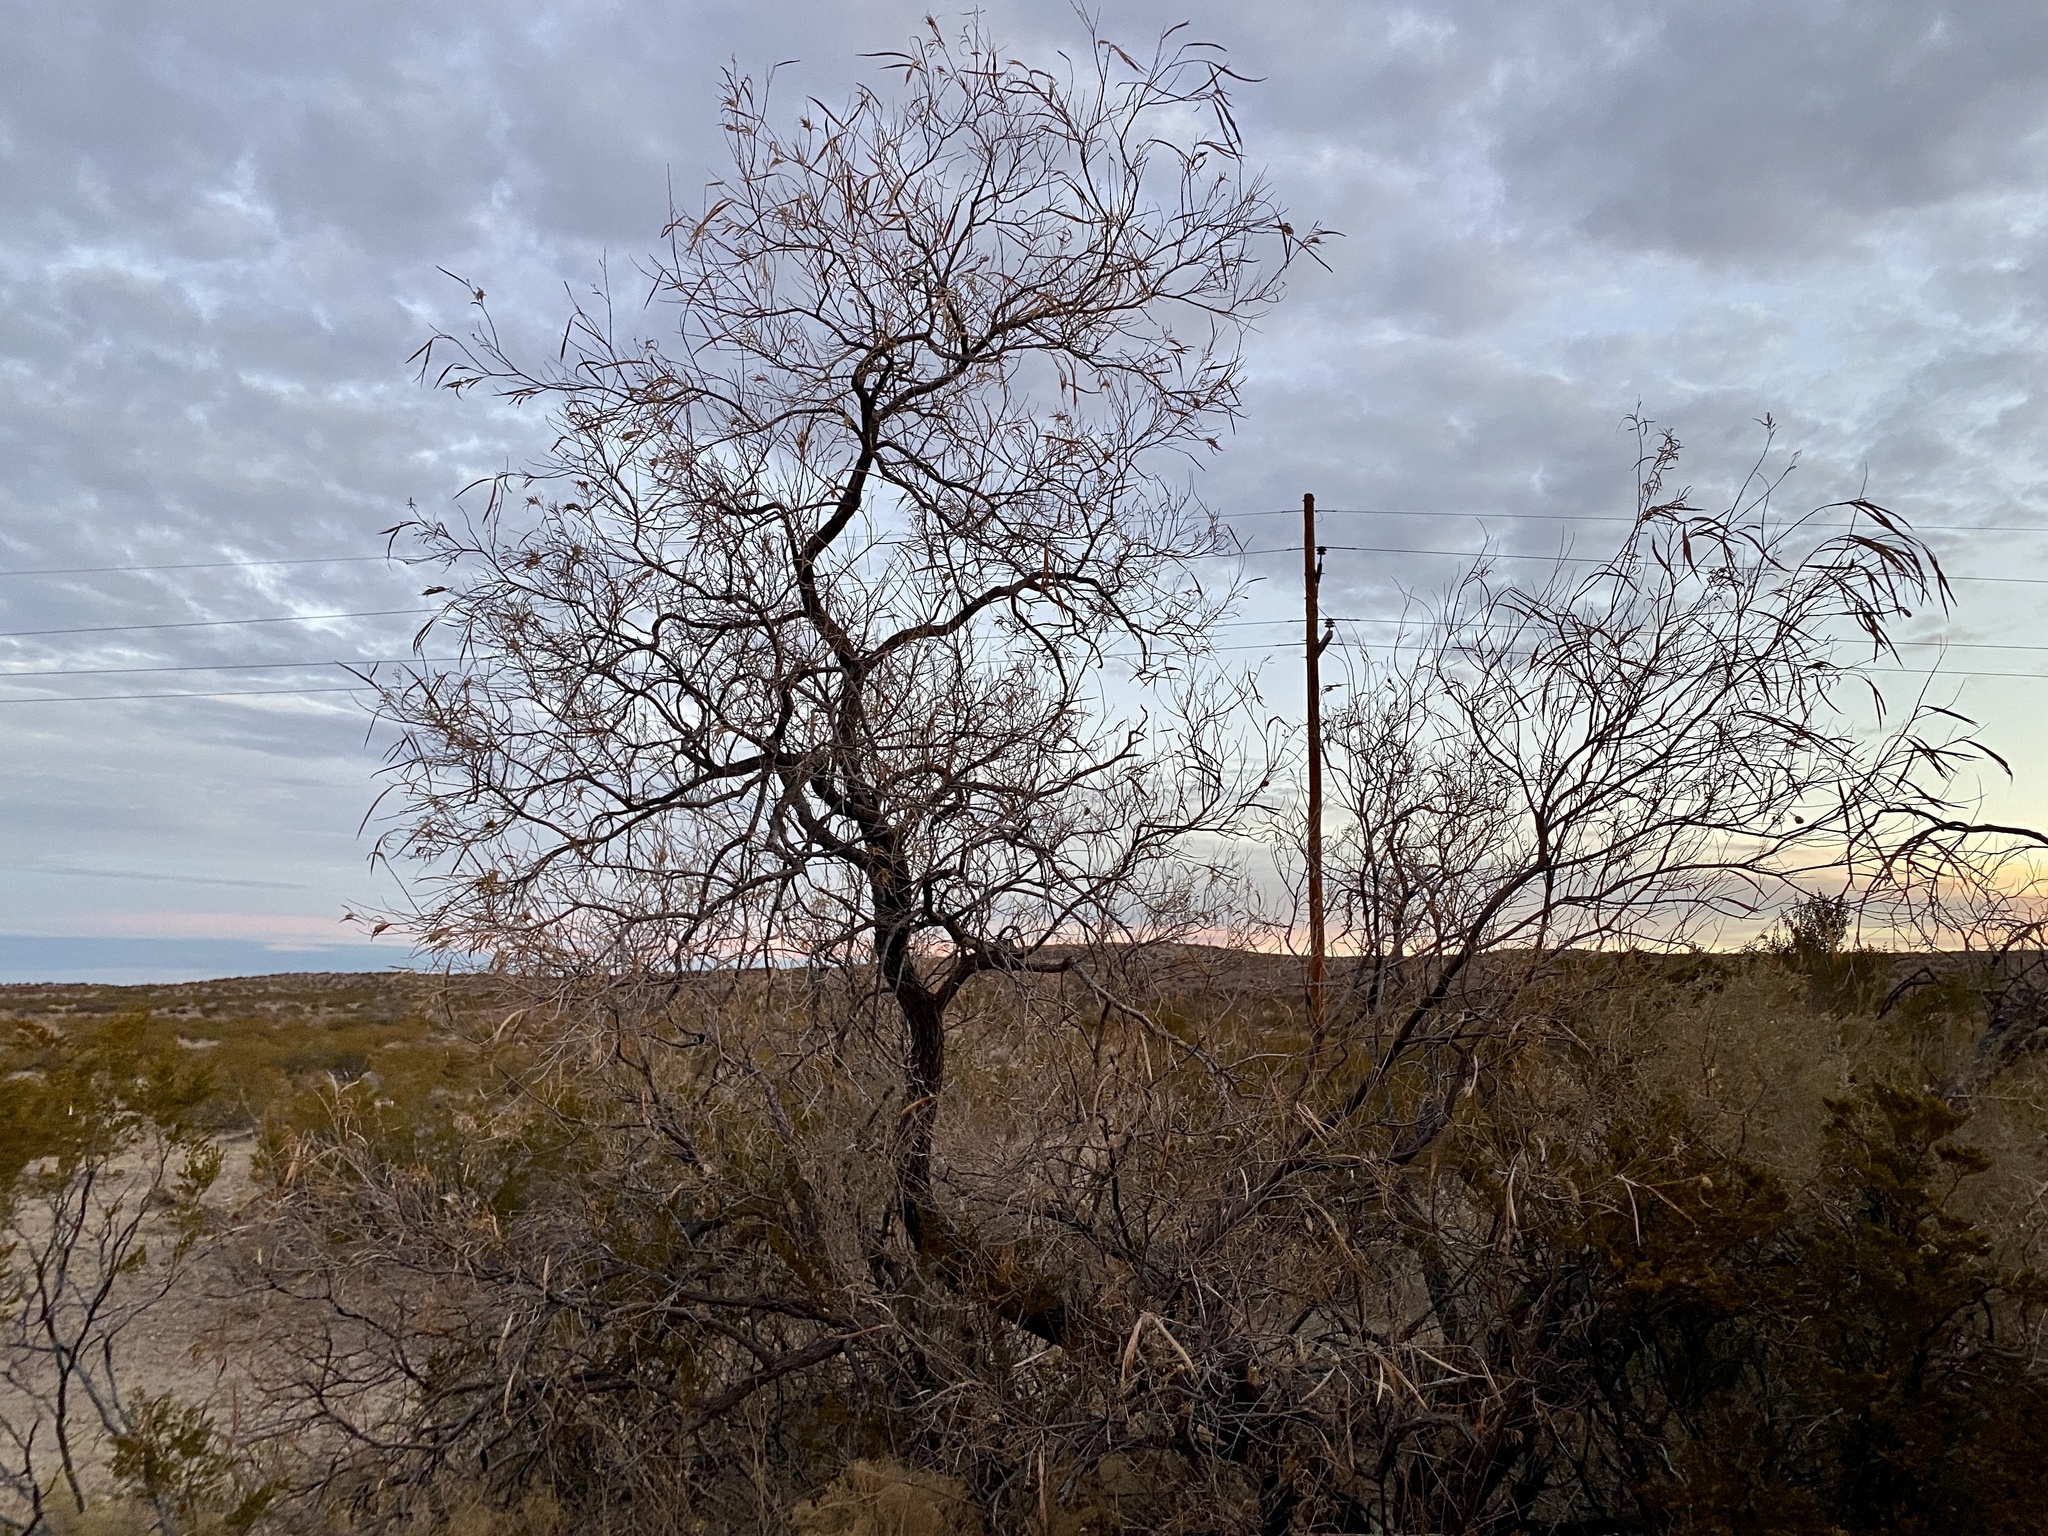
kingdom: Plantae
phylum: Tracheophyta
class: Magnoliopsida
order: Lamiales
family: Bignoniaceae
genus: Chilopsis
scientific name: Chilopsis linearis
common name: Desert-willow
